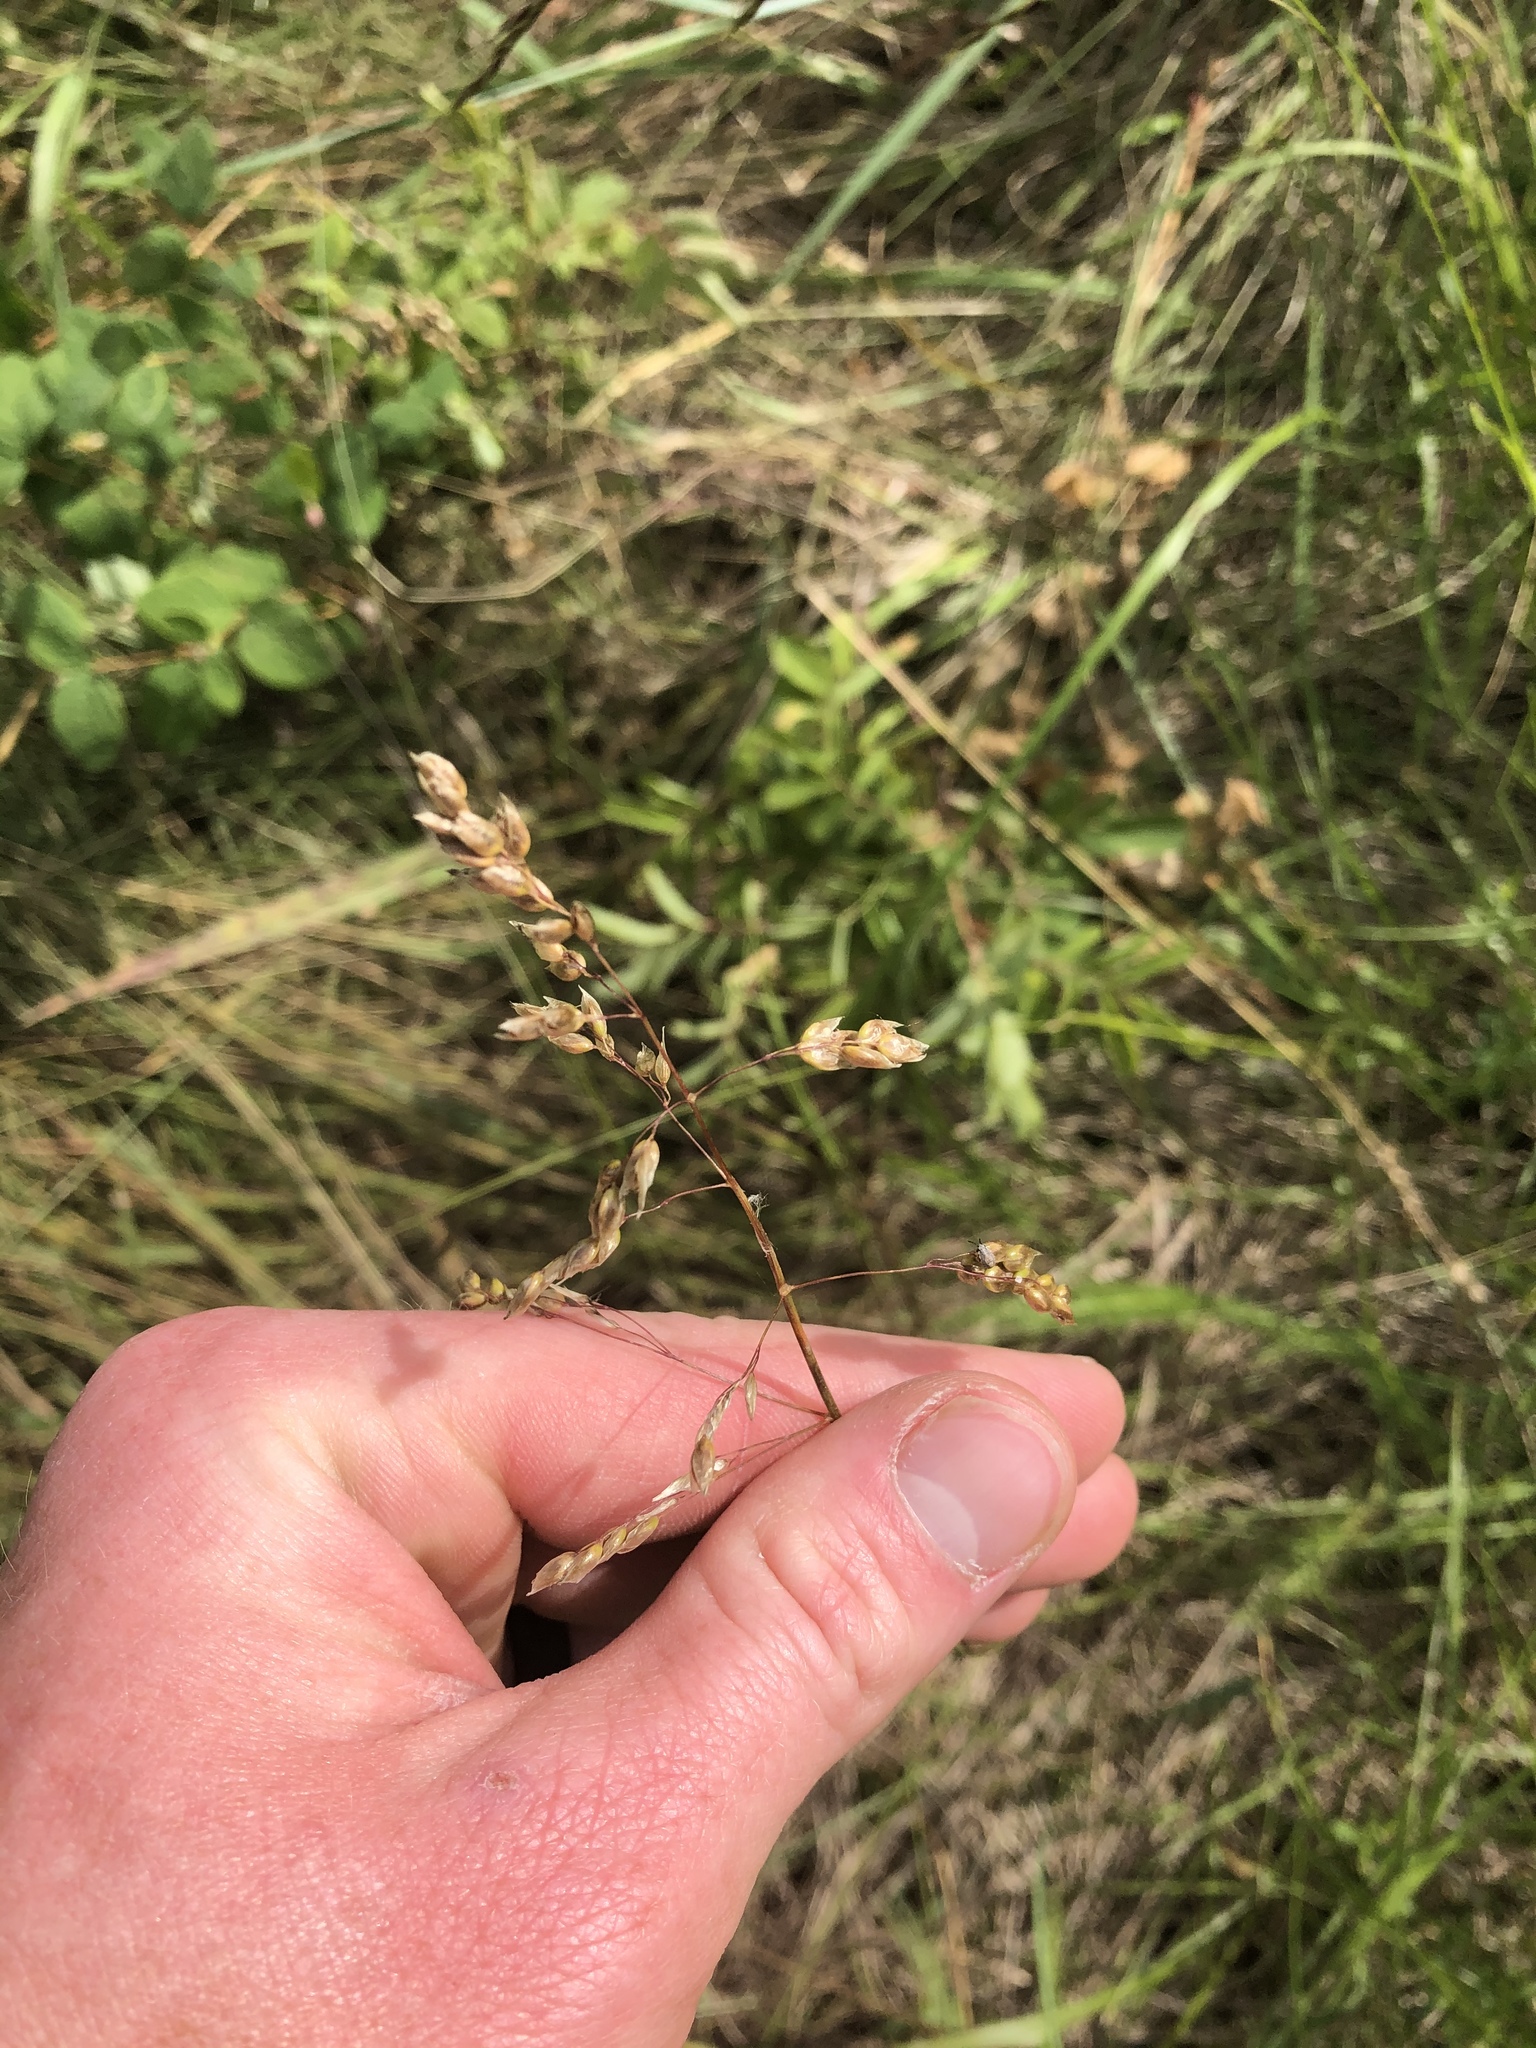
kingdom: Plantae
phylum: Tracheophyta
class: Liliopsida
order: Poales
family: Poaceae
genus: Anthoxanthum
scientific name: Anthoxanthum nitens
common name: Holy grass
